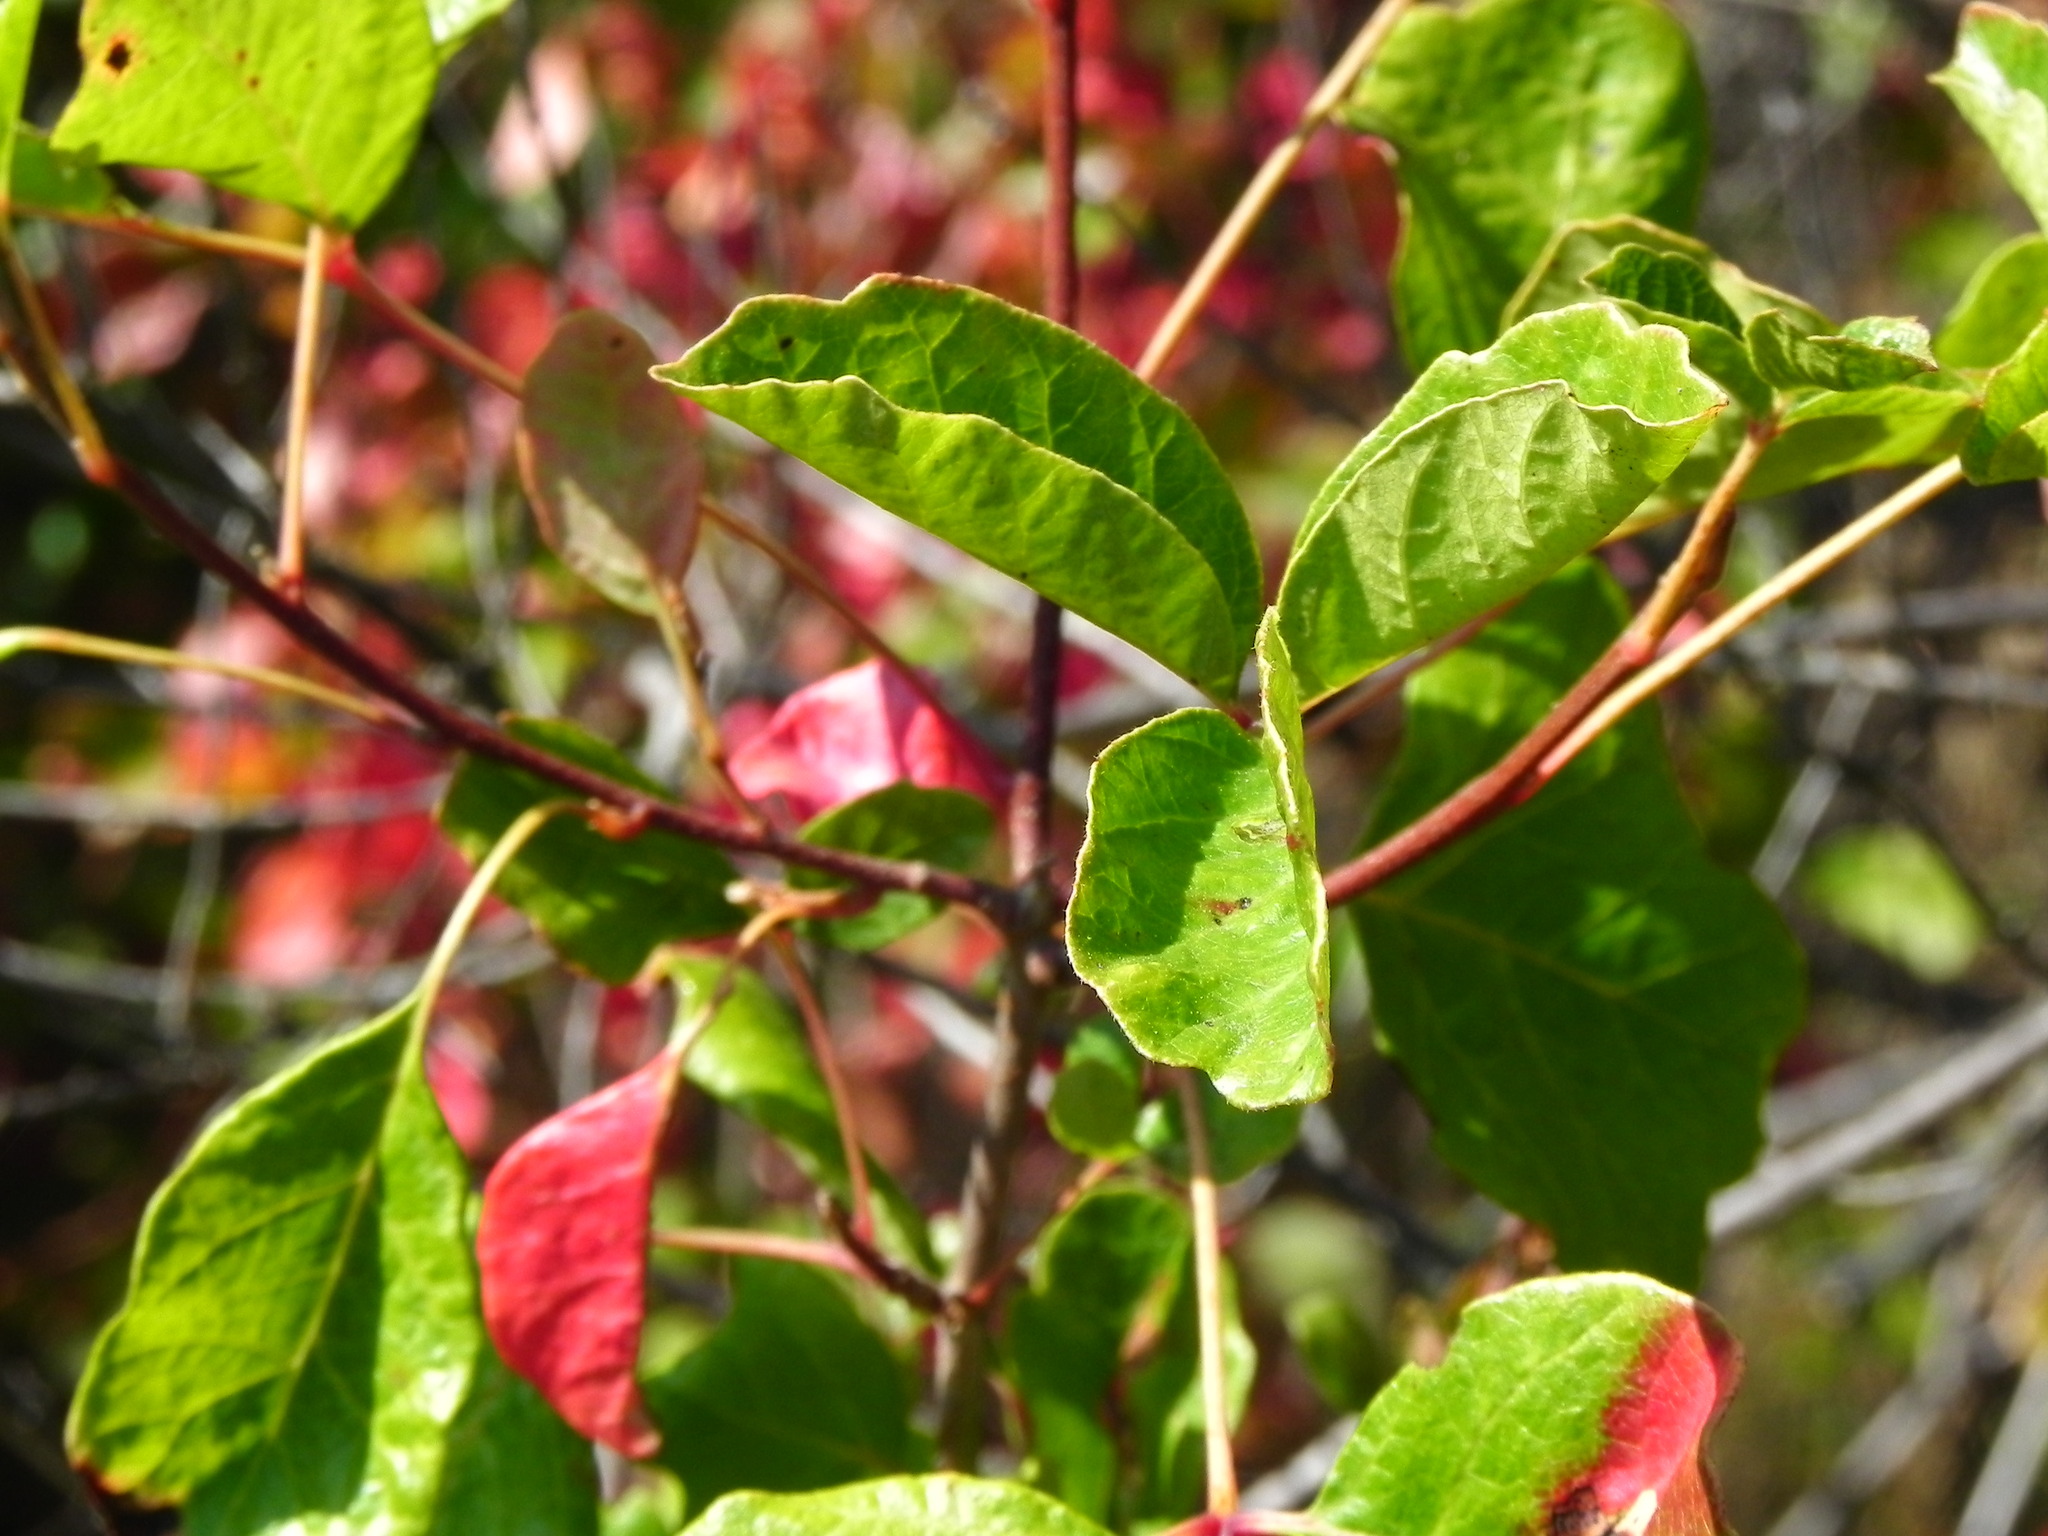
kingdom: Plantae
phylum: Tracheophyta
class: Magnoliopsida
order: Sapindales
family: Anacardiaceae
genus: Toxicodendron
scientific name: Toxicodendron diversilobum
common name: Pacific poison-oak
